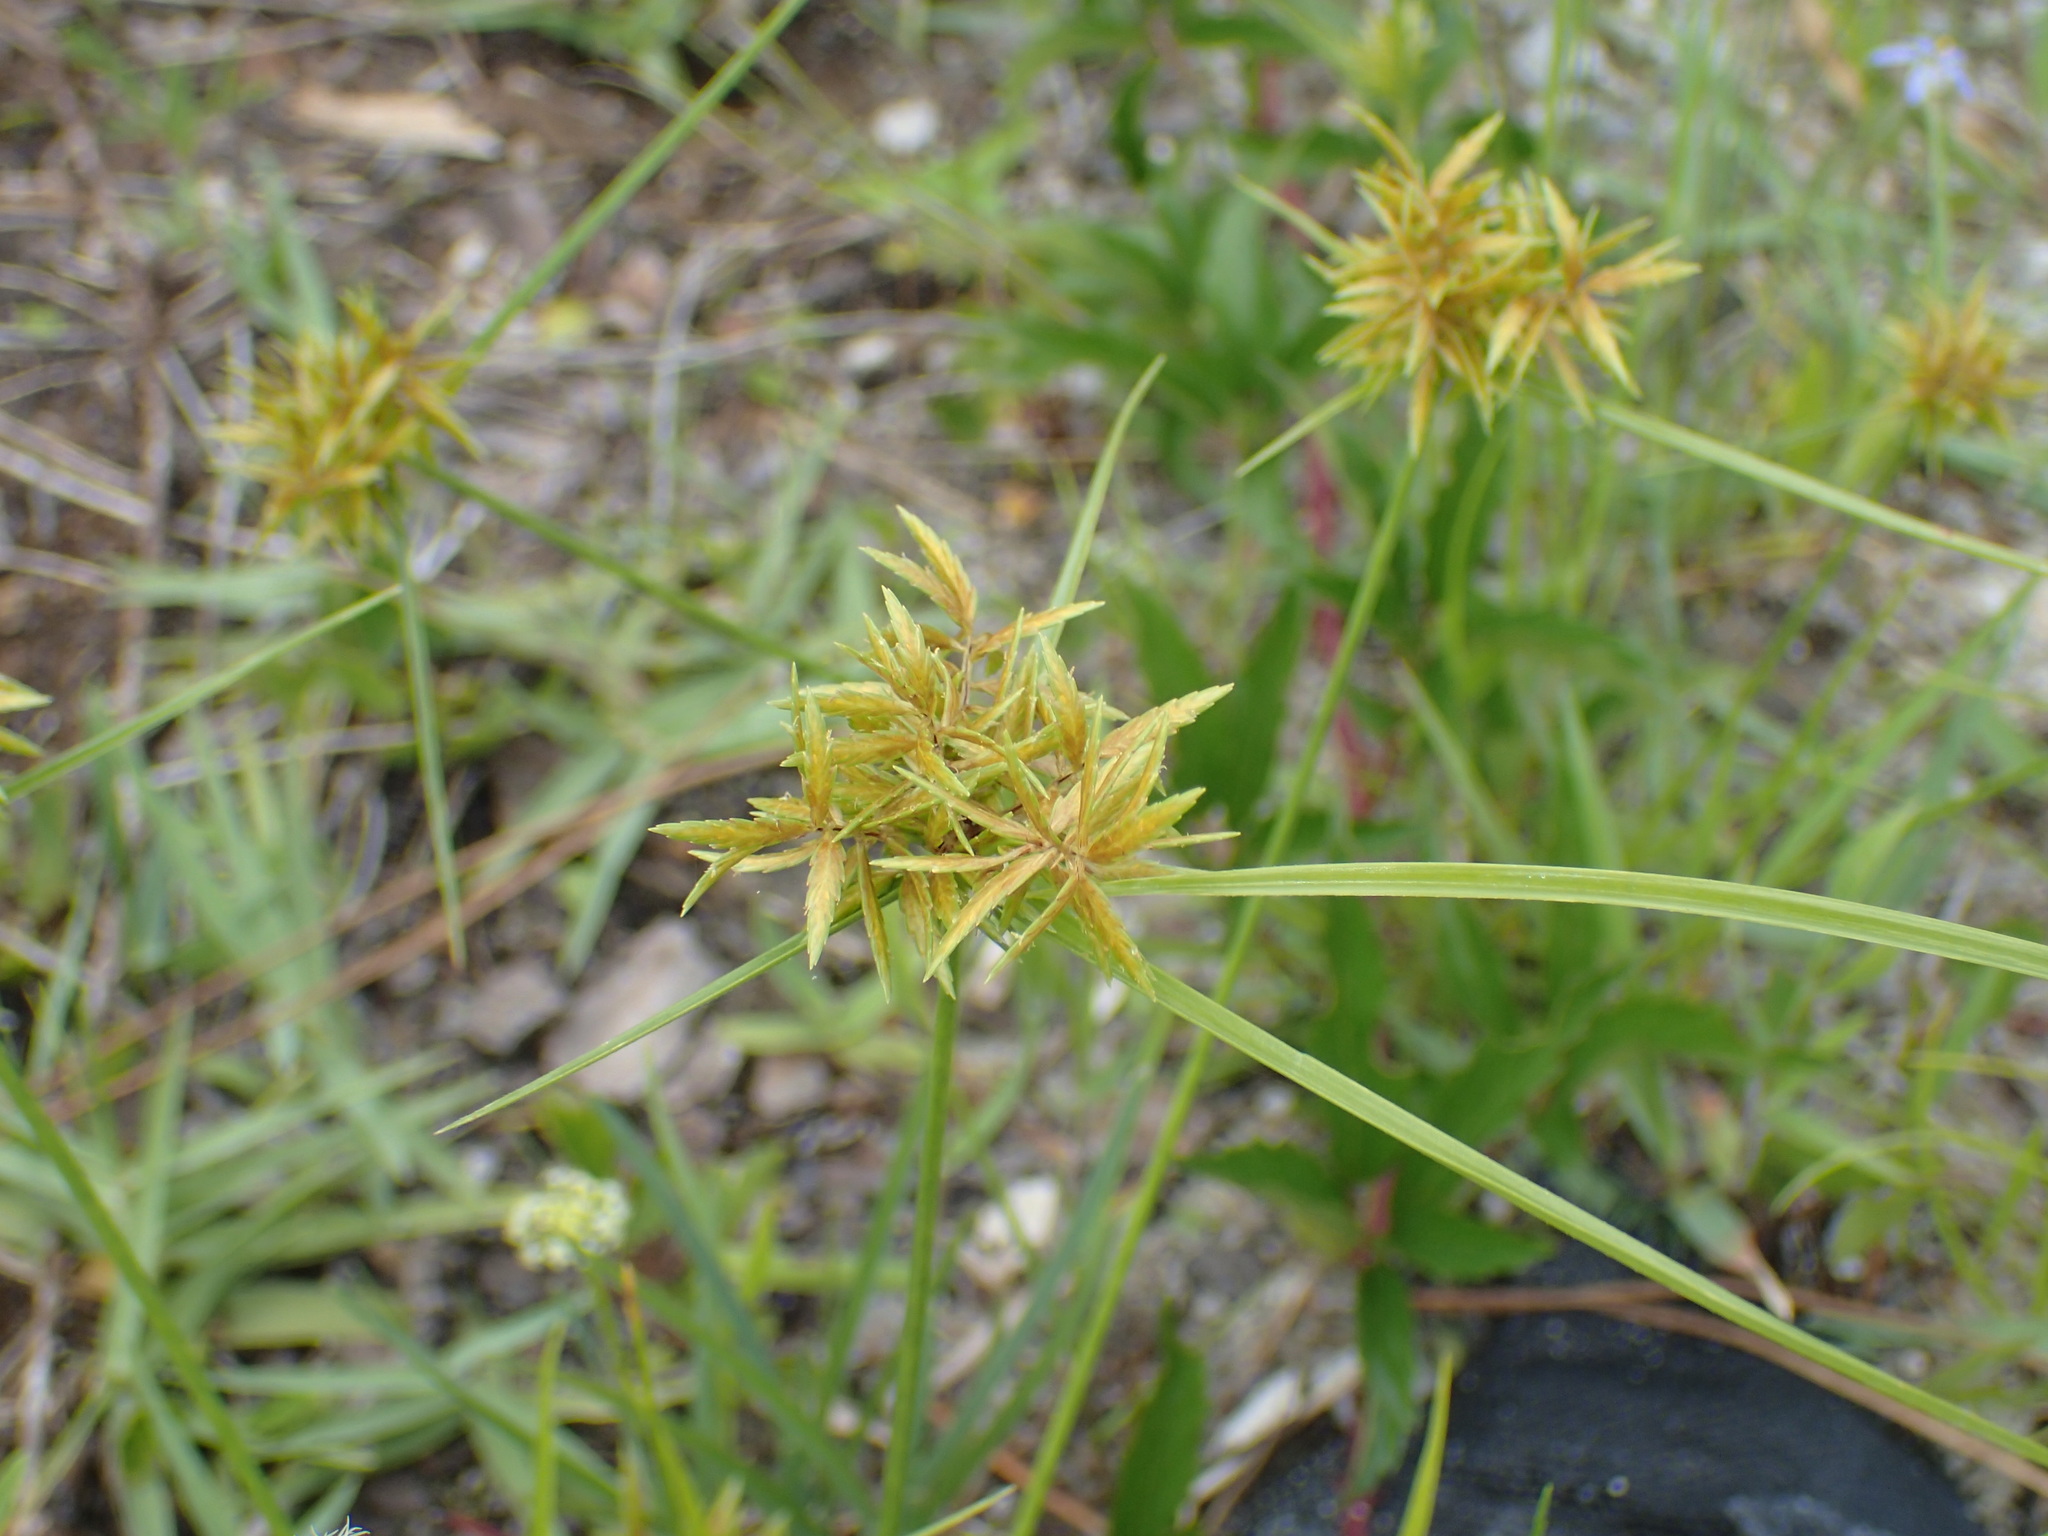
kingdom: Plantae
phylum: Tracheophyta
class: Liliopsida
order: Poales
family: Cyperaceae
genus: Cyperus
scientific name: Cyperus polystachyos
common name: Bunchy flat sedge
